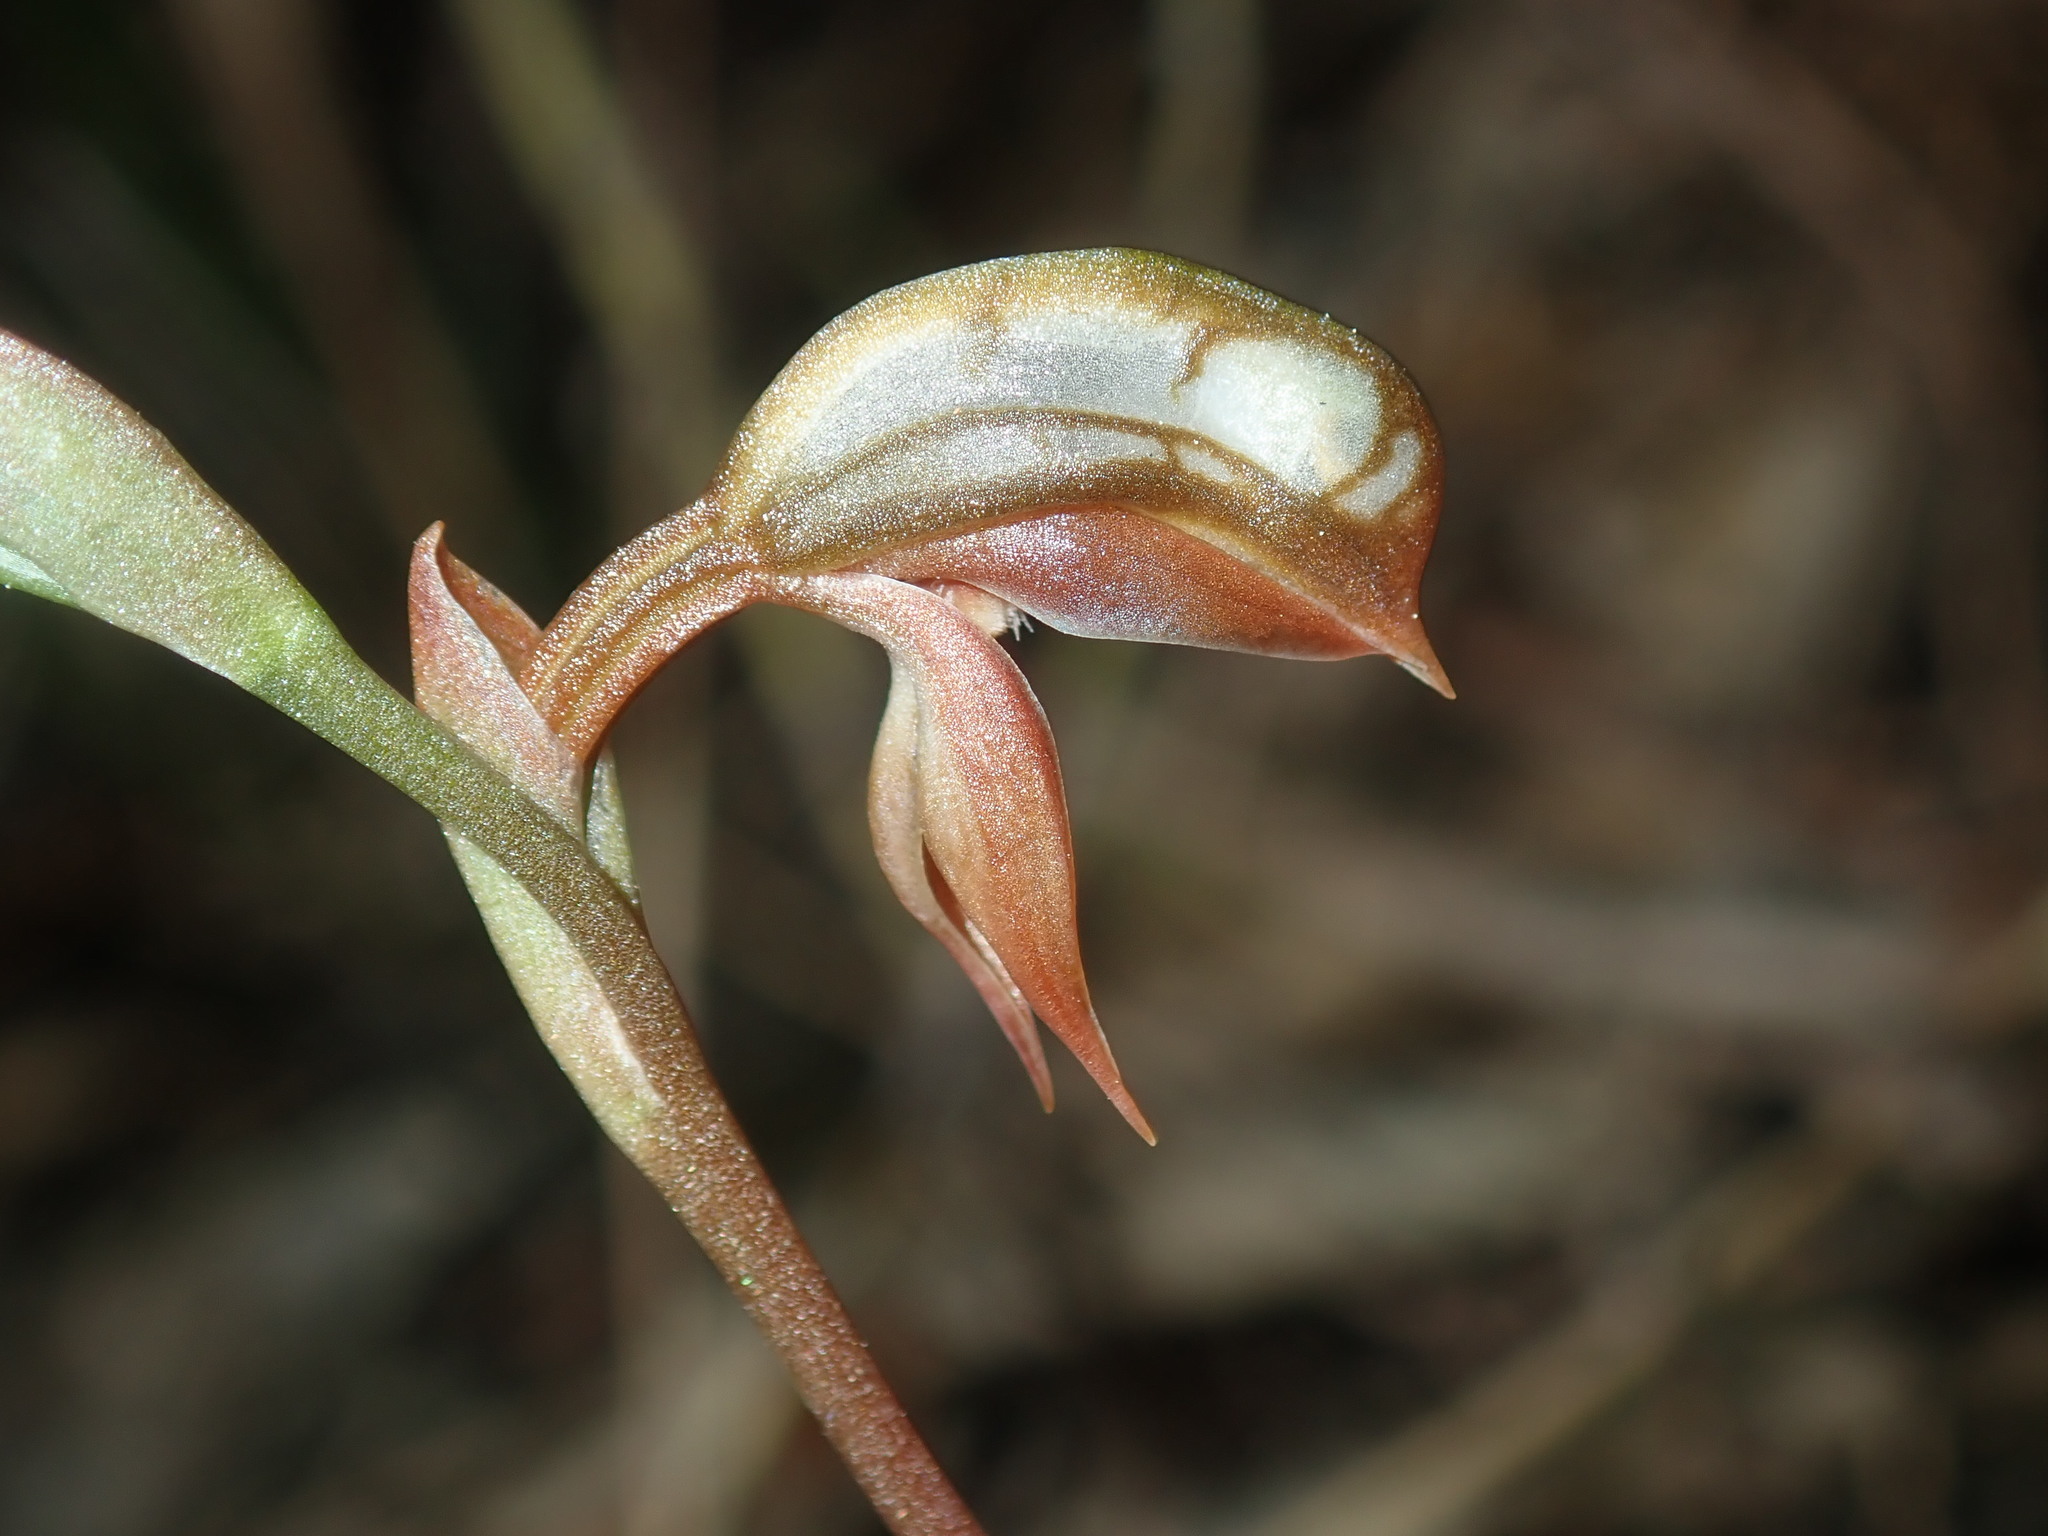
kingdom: Plantae
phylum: Tracheophyta
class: Liliopsida
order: Asparagales
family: Orchidaceae
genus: Pterostylis
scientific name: Pterostylis rufa
